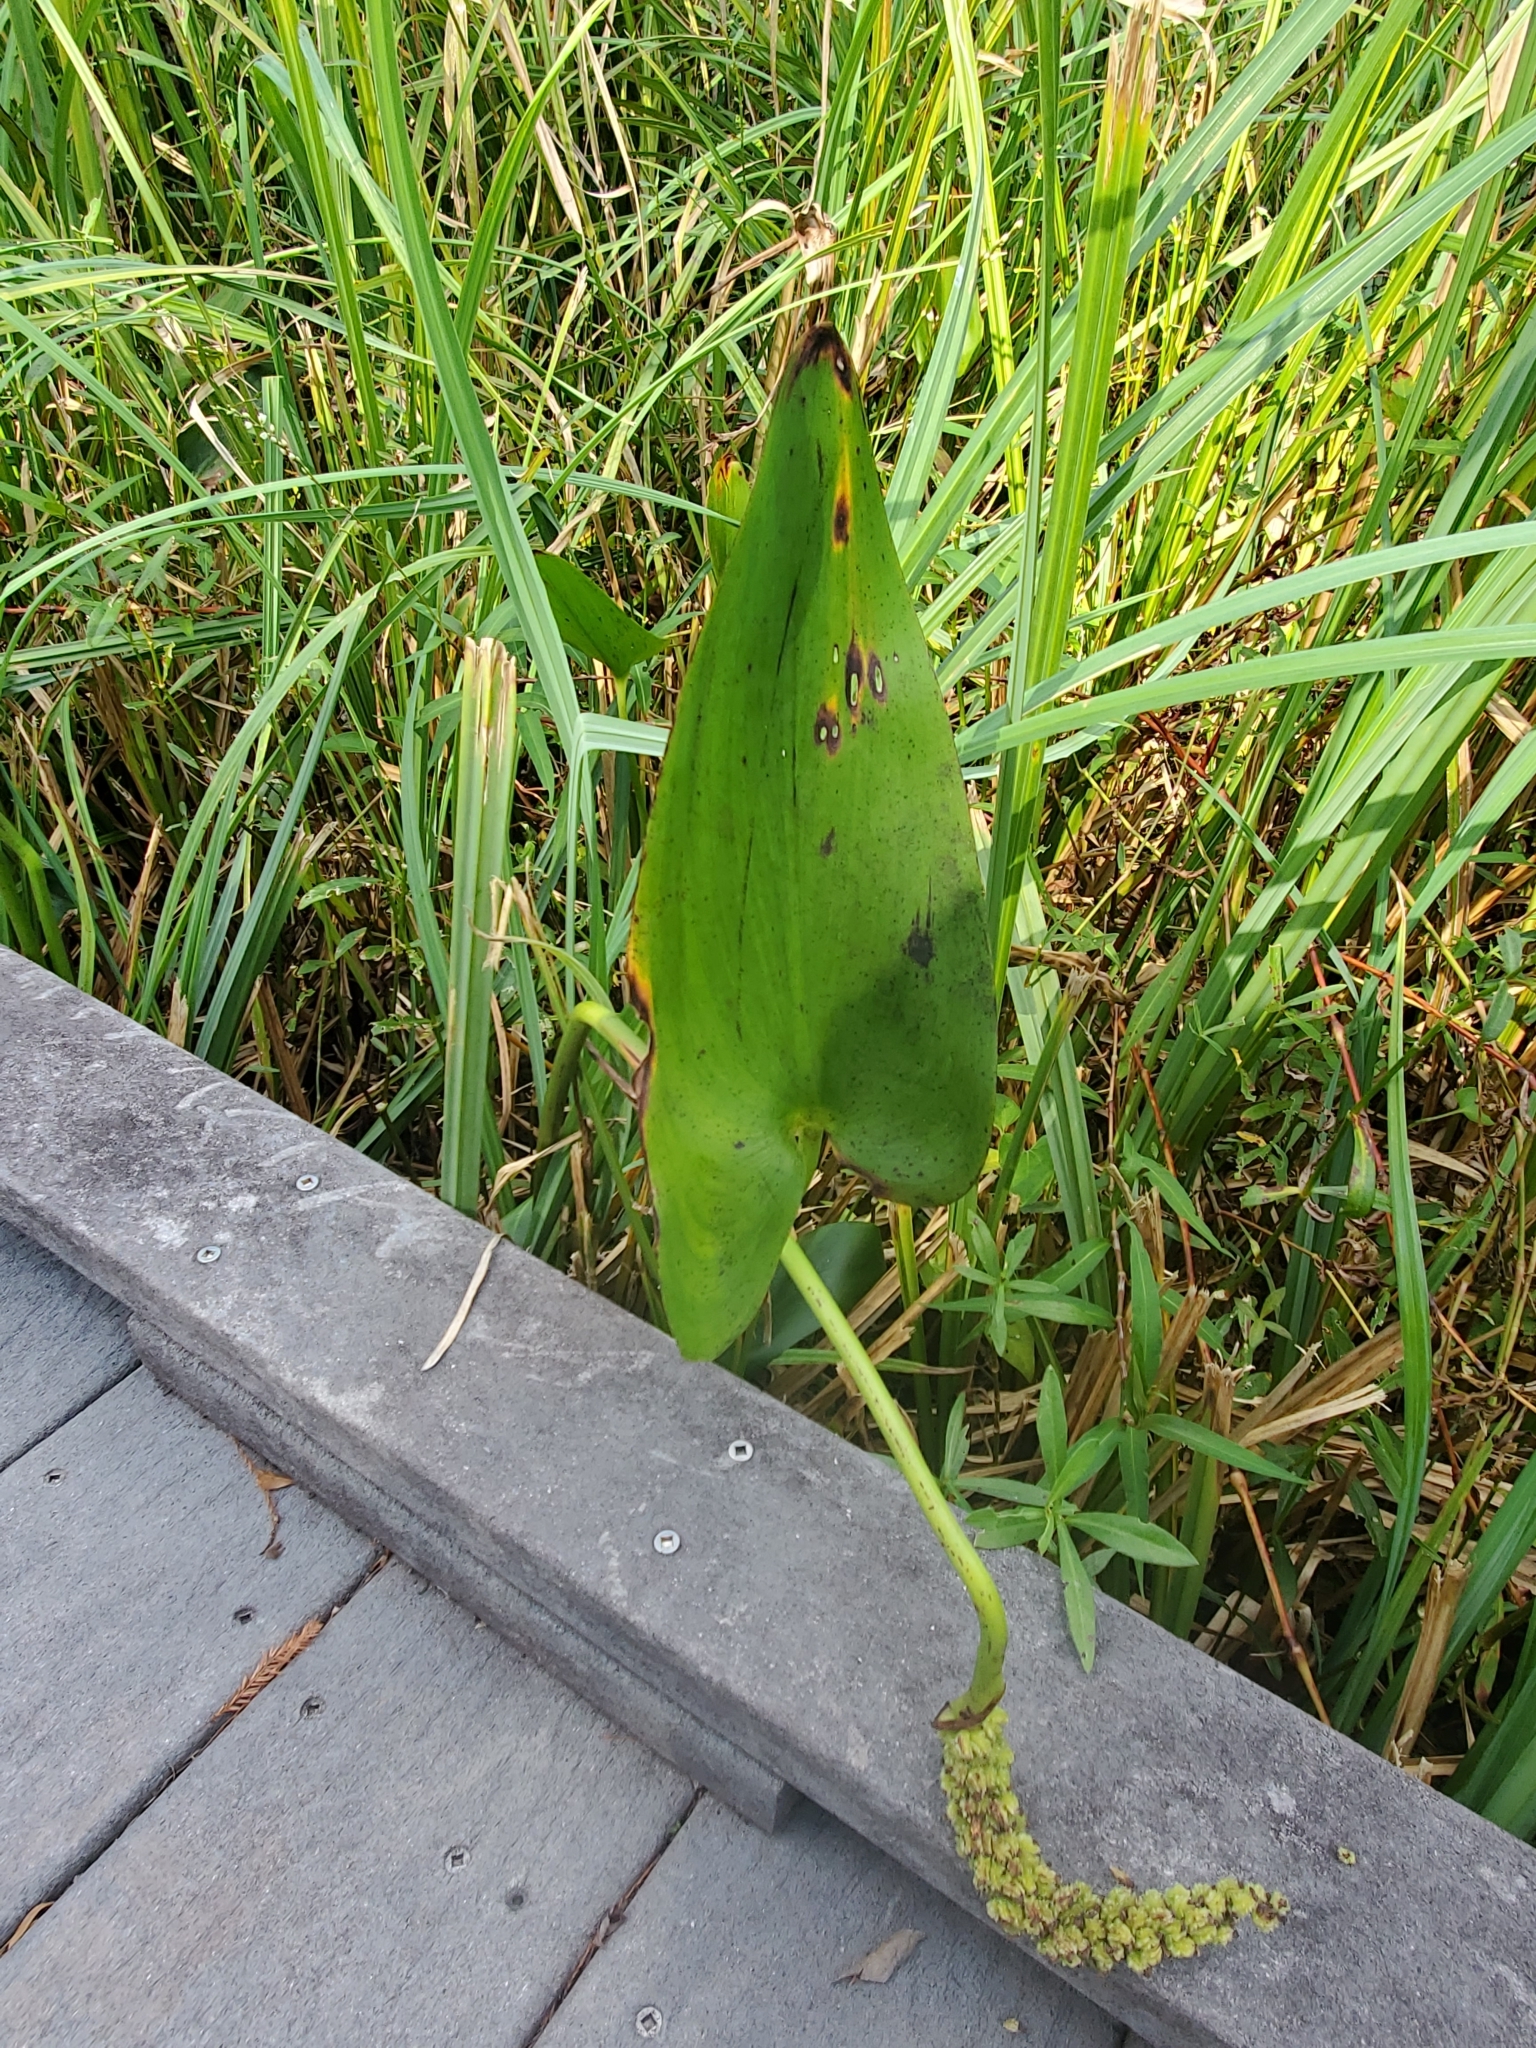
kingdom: Plantae
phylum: Tracheophyta
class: Liliopsida
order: Commelinales
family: Pontederiaceae
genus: Pontederia
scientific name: Pontederia cordata
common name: Pickerelweed
